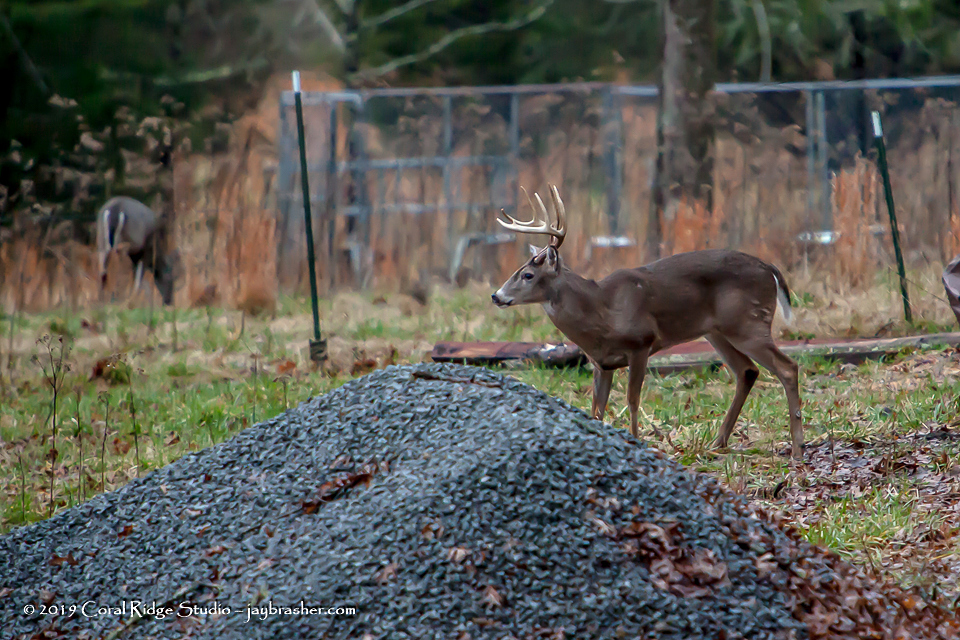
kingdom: Animalia
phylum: Chordata
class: Mammalia
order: Artiodactyla
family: Cervidae
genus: Odocoileus
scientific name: Odocoileus virginianus
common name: White-tailed deer
